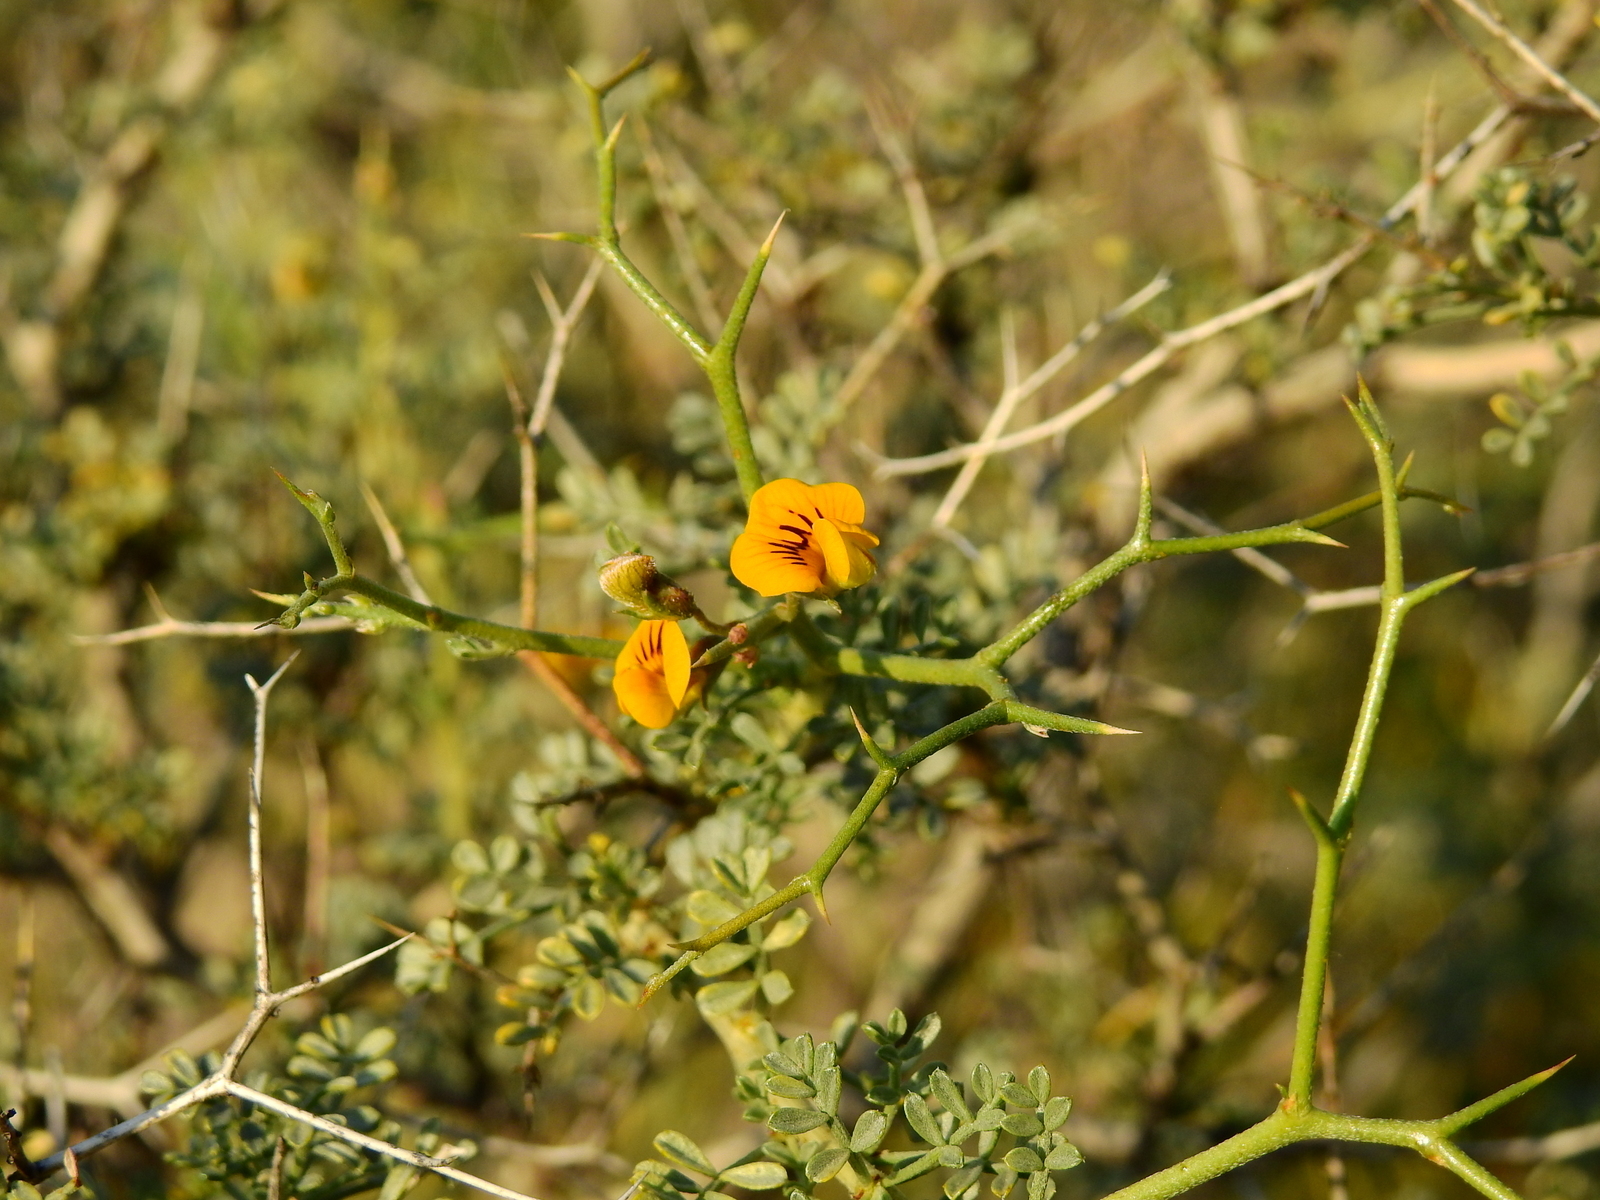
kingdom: Plantae
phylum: Tracheophyta
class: Magnoliopsida
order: Fabales
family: Fabaceae
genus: Adesmia
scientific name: Adesmia trijuga
